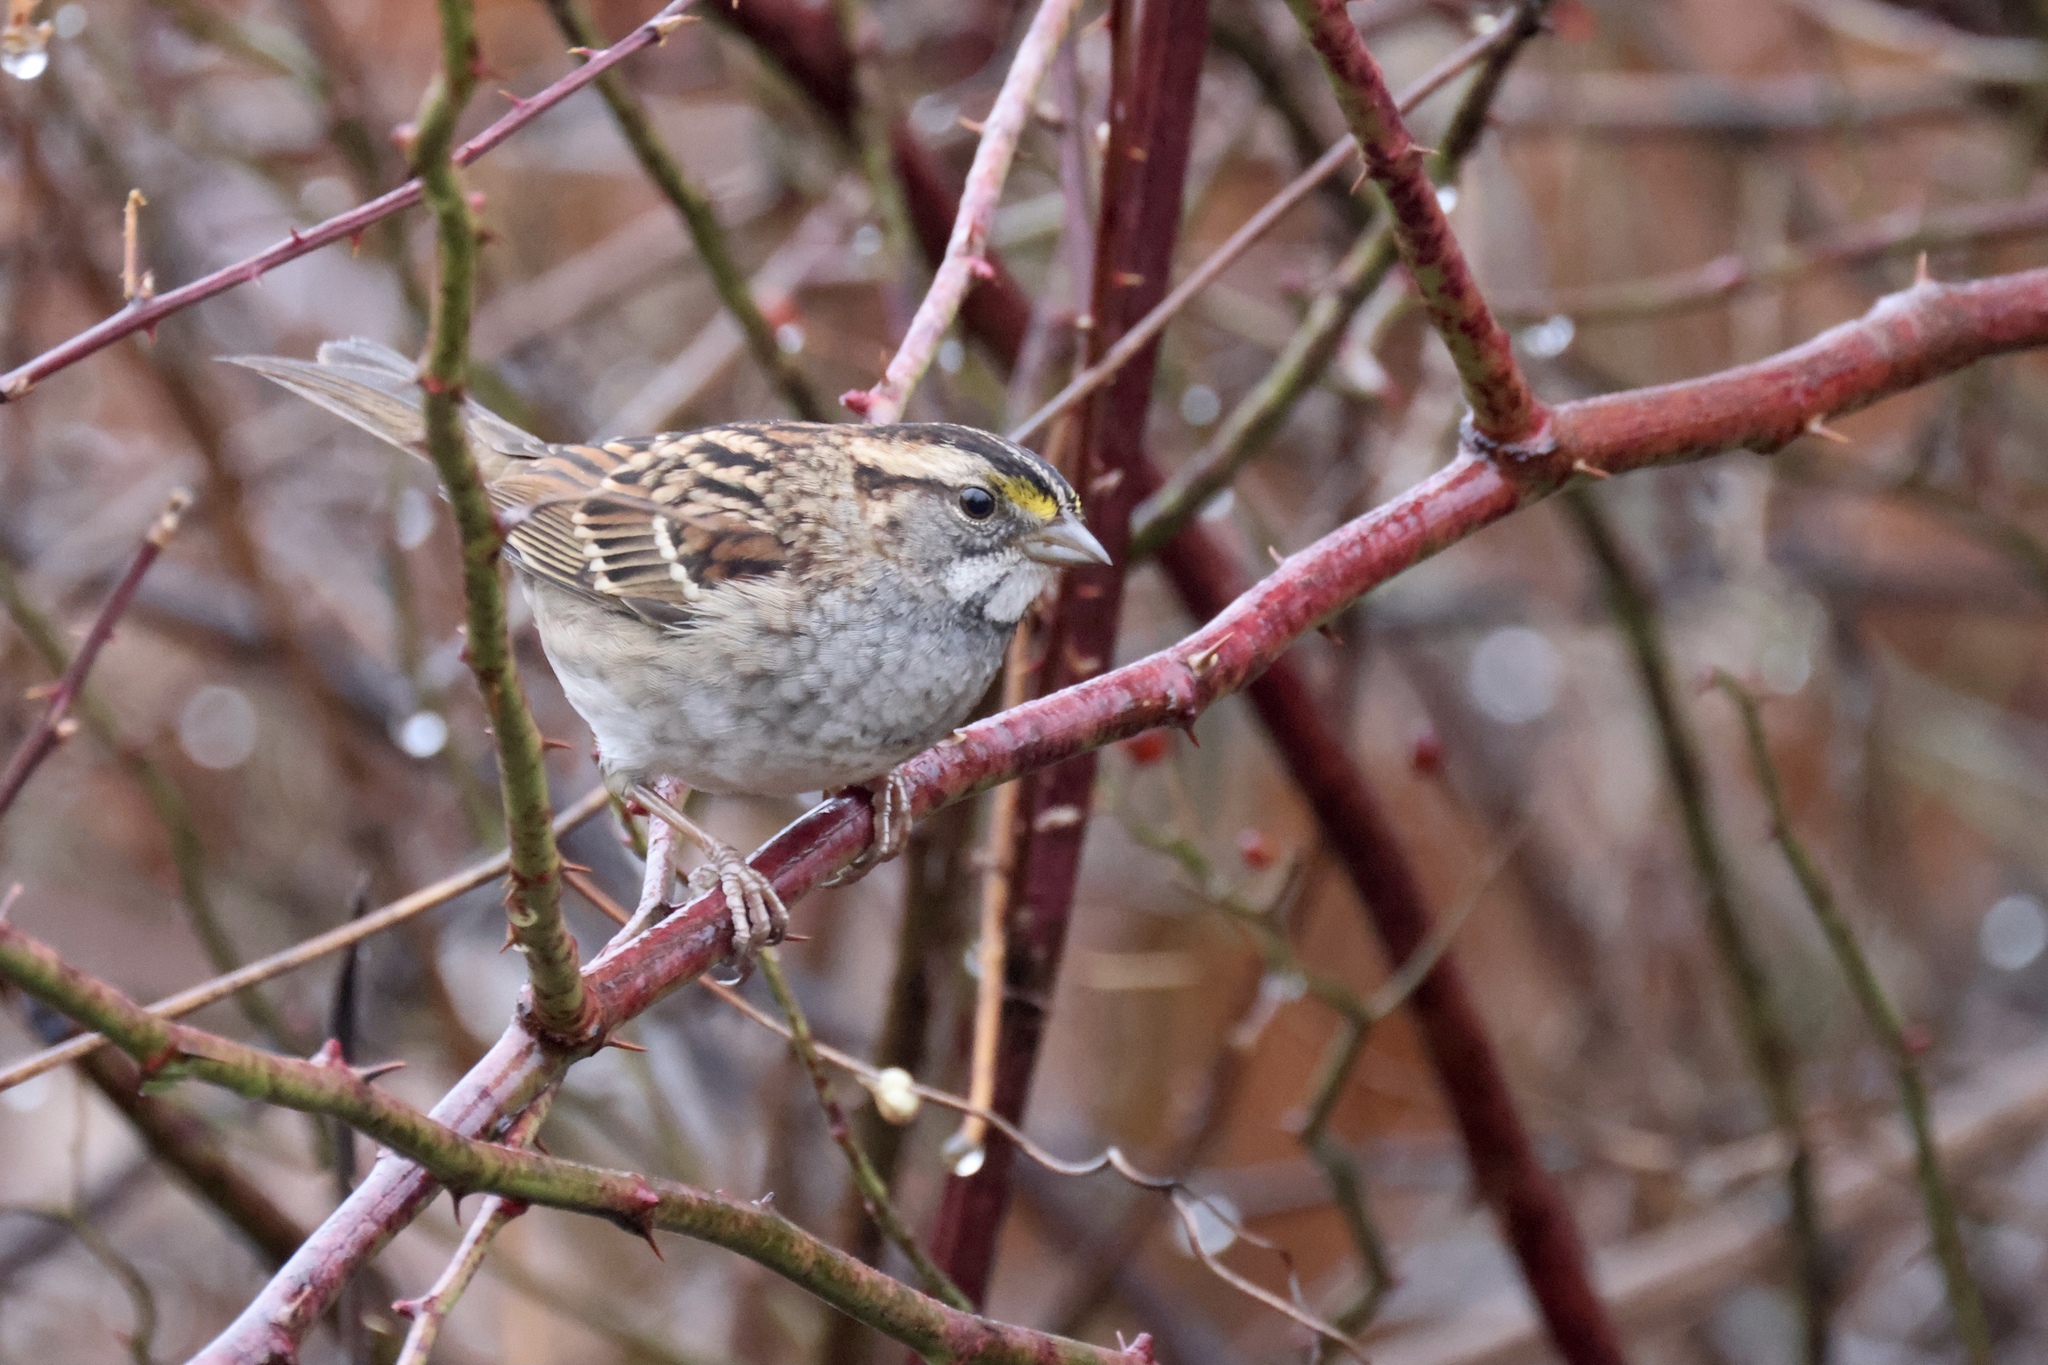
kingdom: Animalia
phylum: Chordata
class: Aves
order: Passeriformes
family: Passerellidae
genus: Zonotrichia
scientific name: Zonotrichia albicollis
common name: White-throated sparrow
